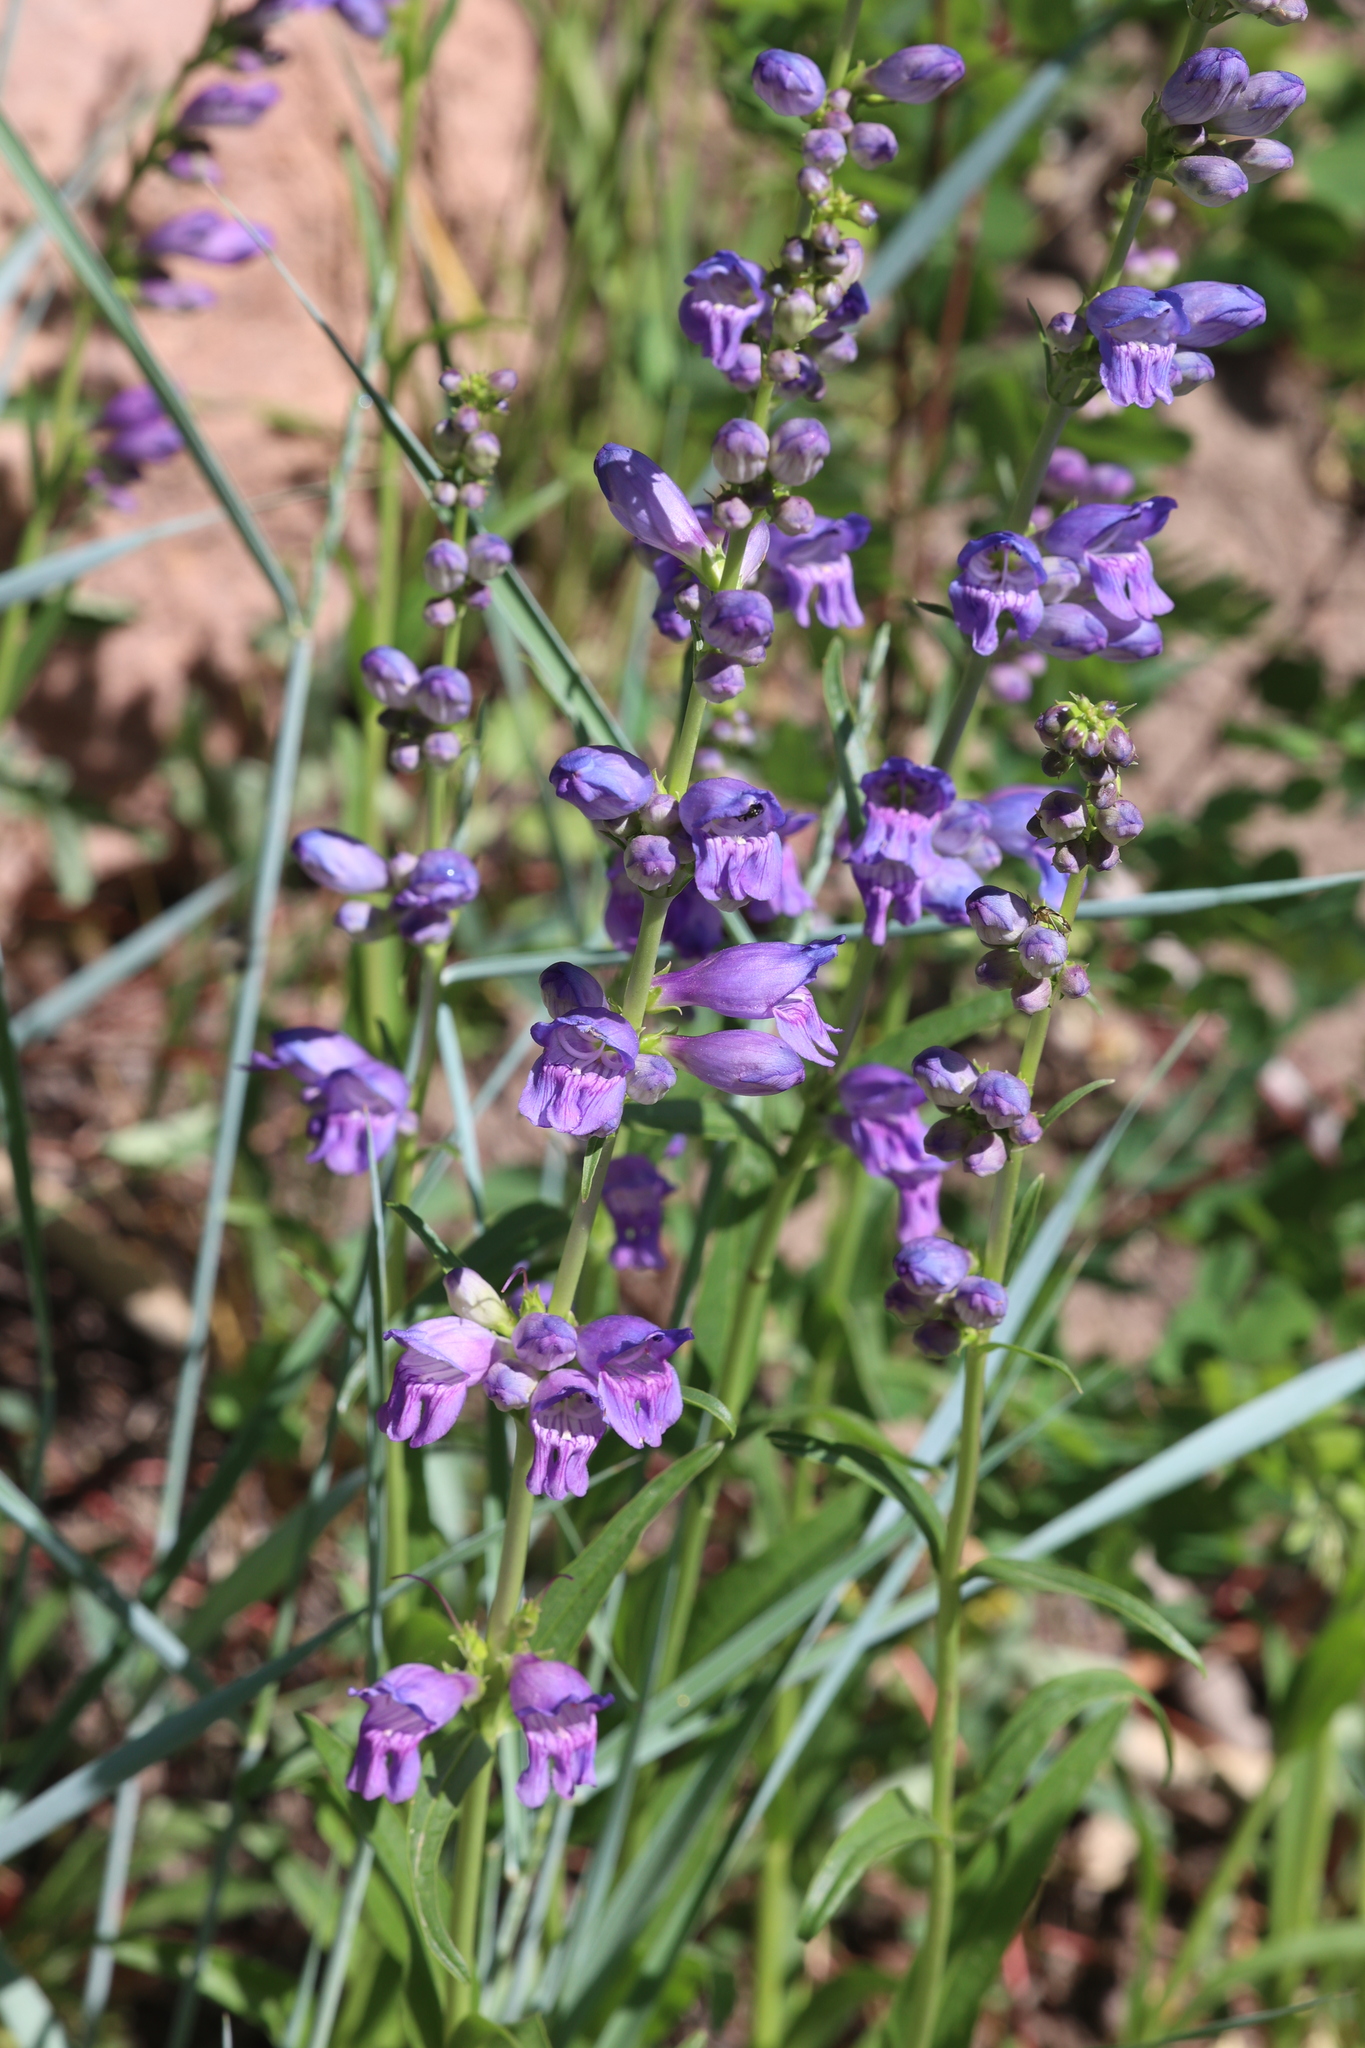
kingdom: Plantae
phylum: Tracheophyta
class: Magnoliopsida
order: Lamiales
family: Plantaginaceae
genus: Penstemon
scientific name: Penstemon strictus
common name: Rocky mountain penstemon
